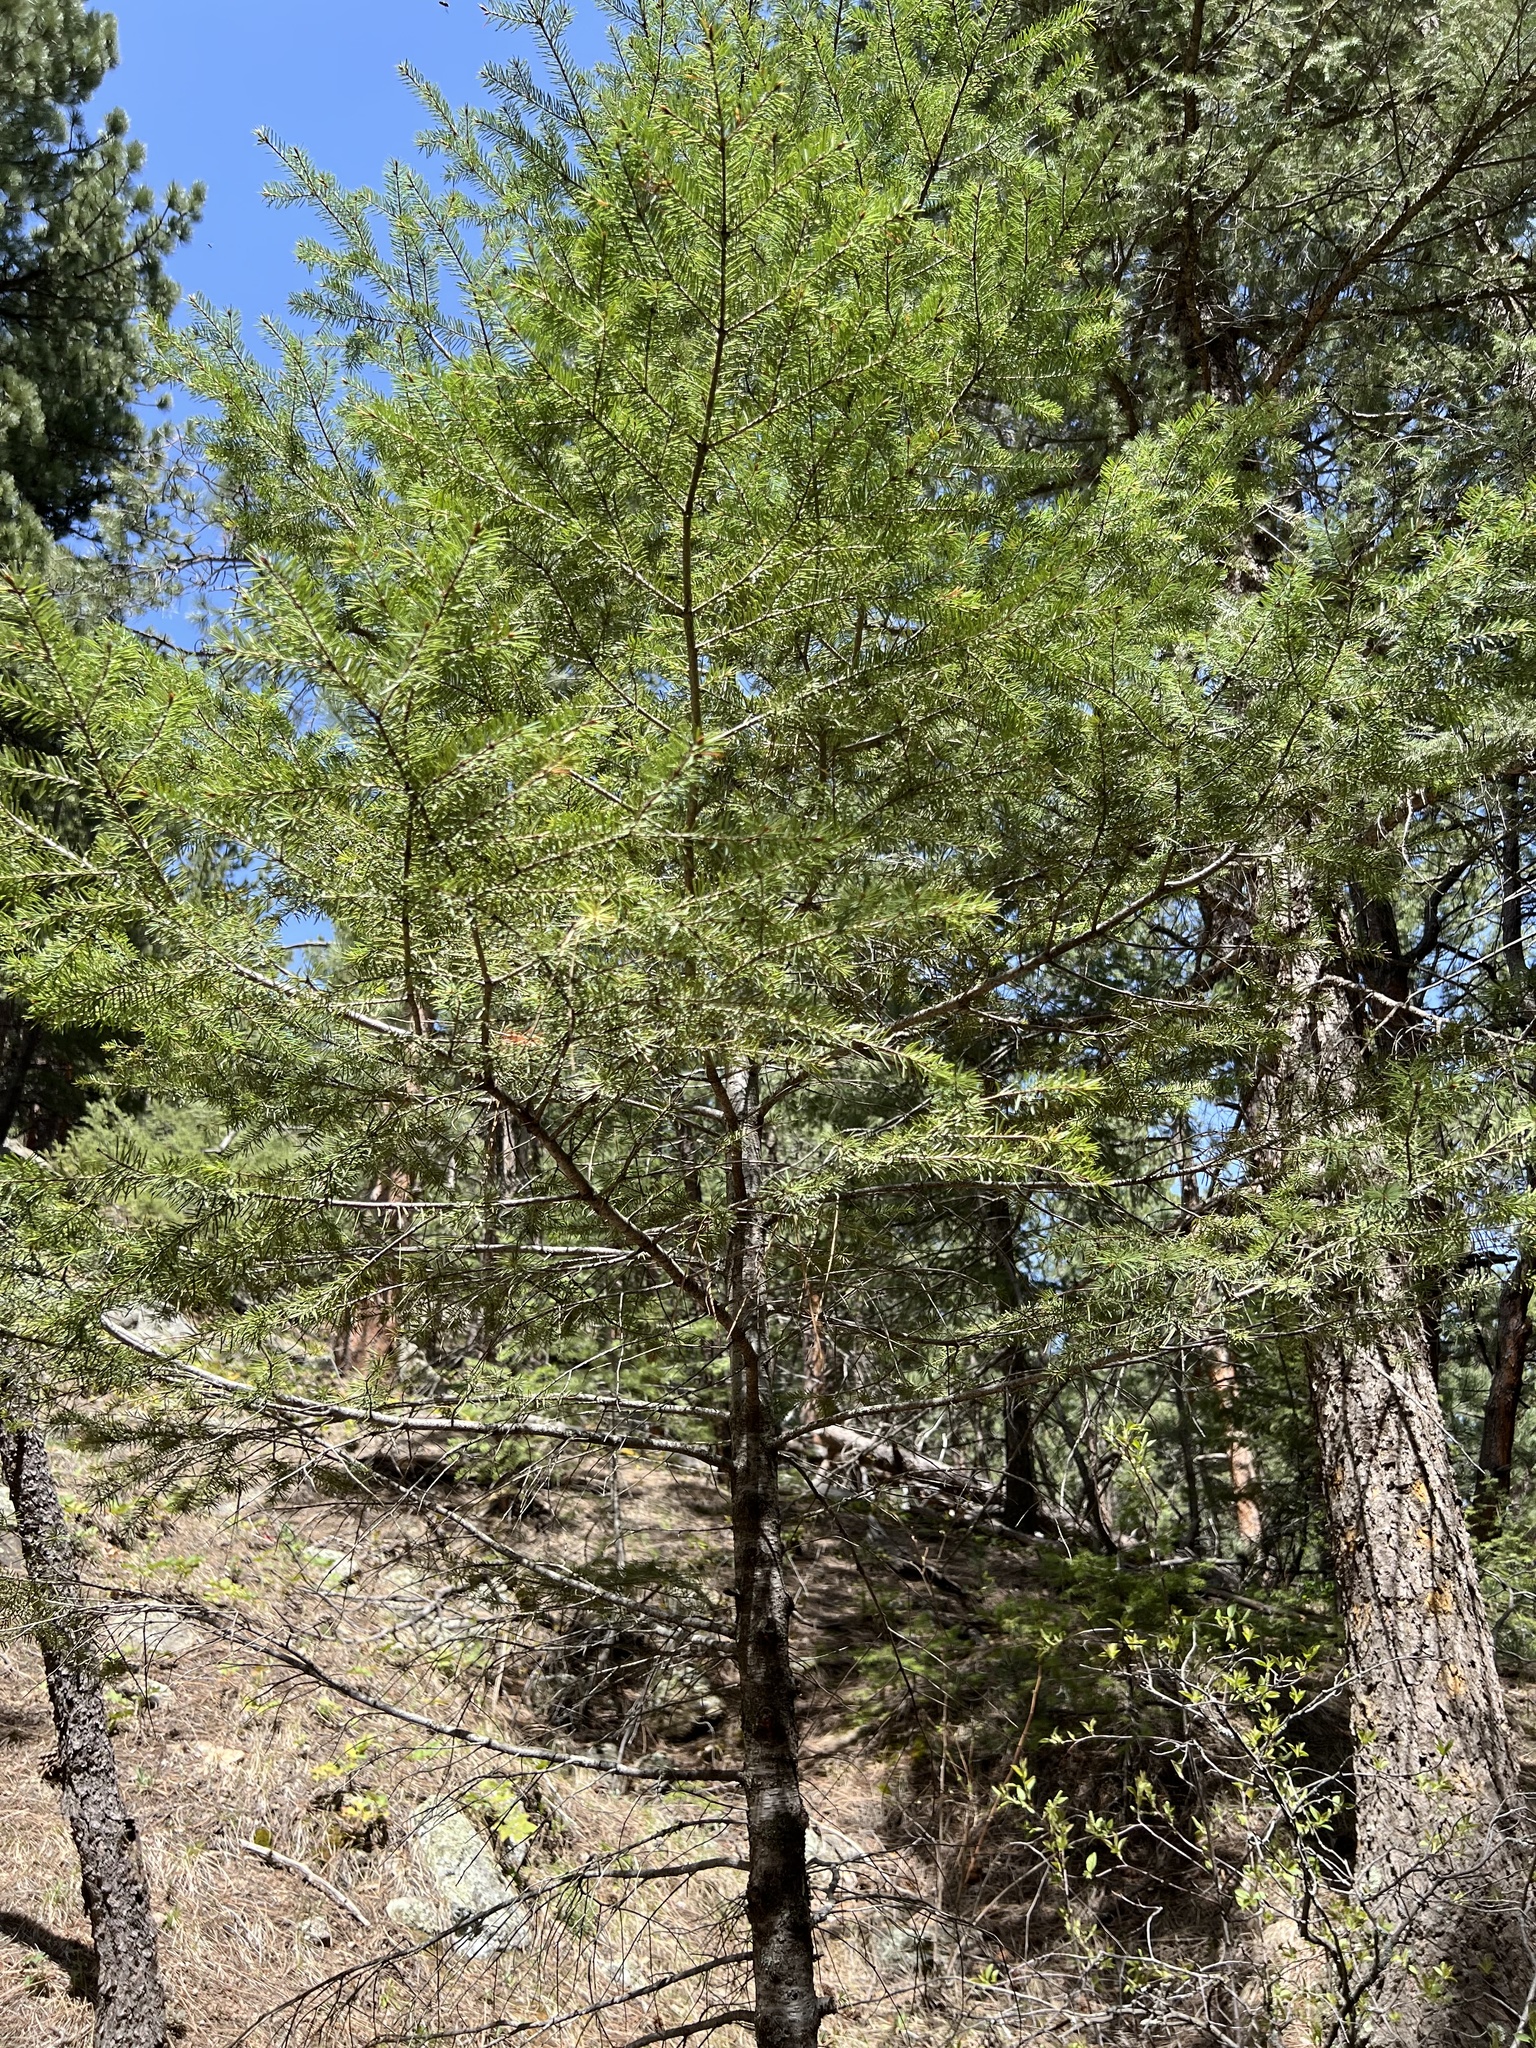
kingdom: Plantae
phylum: Tracheophyta
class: Pinopsida
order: Pinales
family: Pinaceae
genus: Pseudotsuga
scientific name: Pseudotsuga menziesii
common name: Douglas fir
